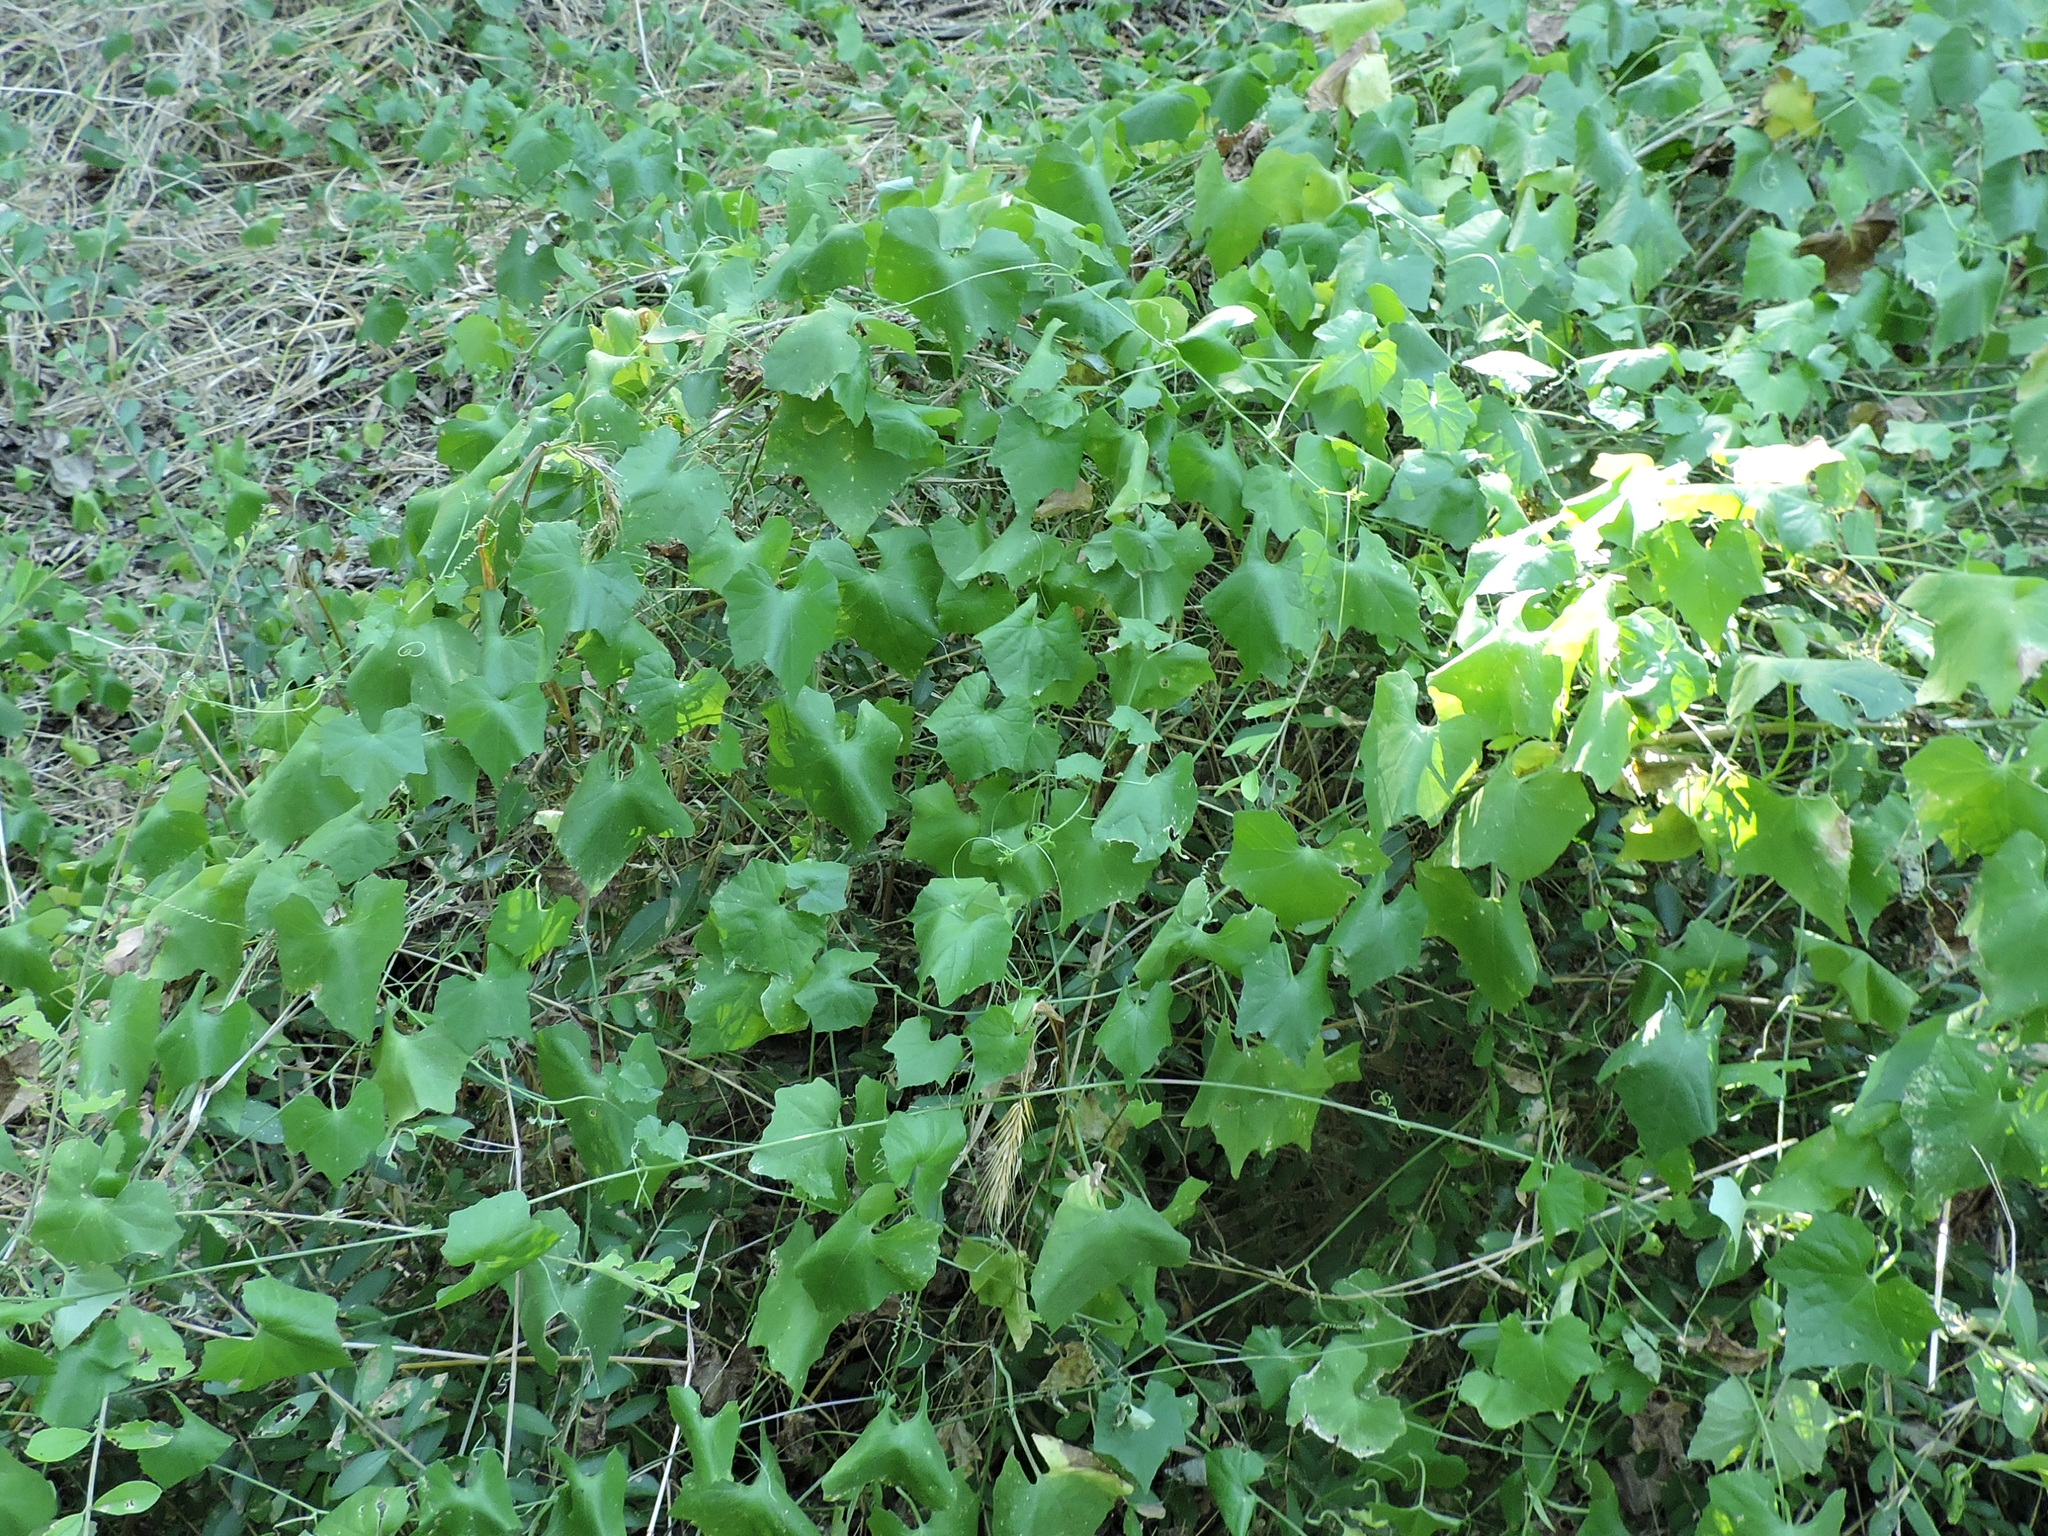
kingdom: Plantae
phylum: Tracheophyta
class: Magnoliopsida
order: Cucurbitales
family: Cucurbitaceae
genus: Melothria
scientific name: Melothria pendula
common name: Creeping-cucumber
